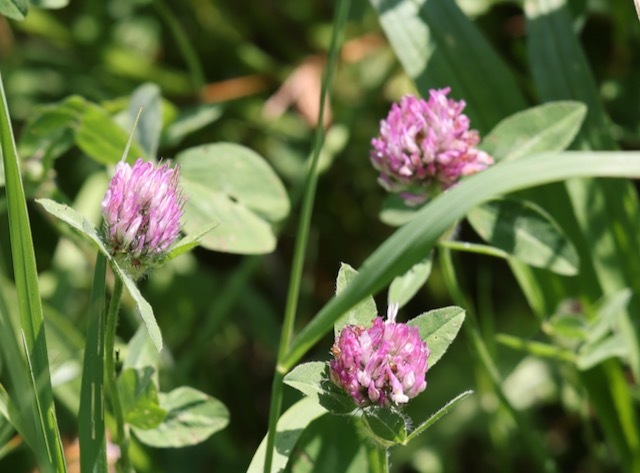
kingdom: Plantae
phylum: Tracheophyta
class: Magnoliopsida
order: Fabales
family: Fabaceae
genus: Trifolium
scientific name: Trifolium pratense
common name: Red clover
